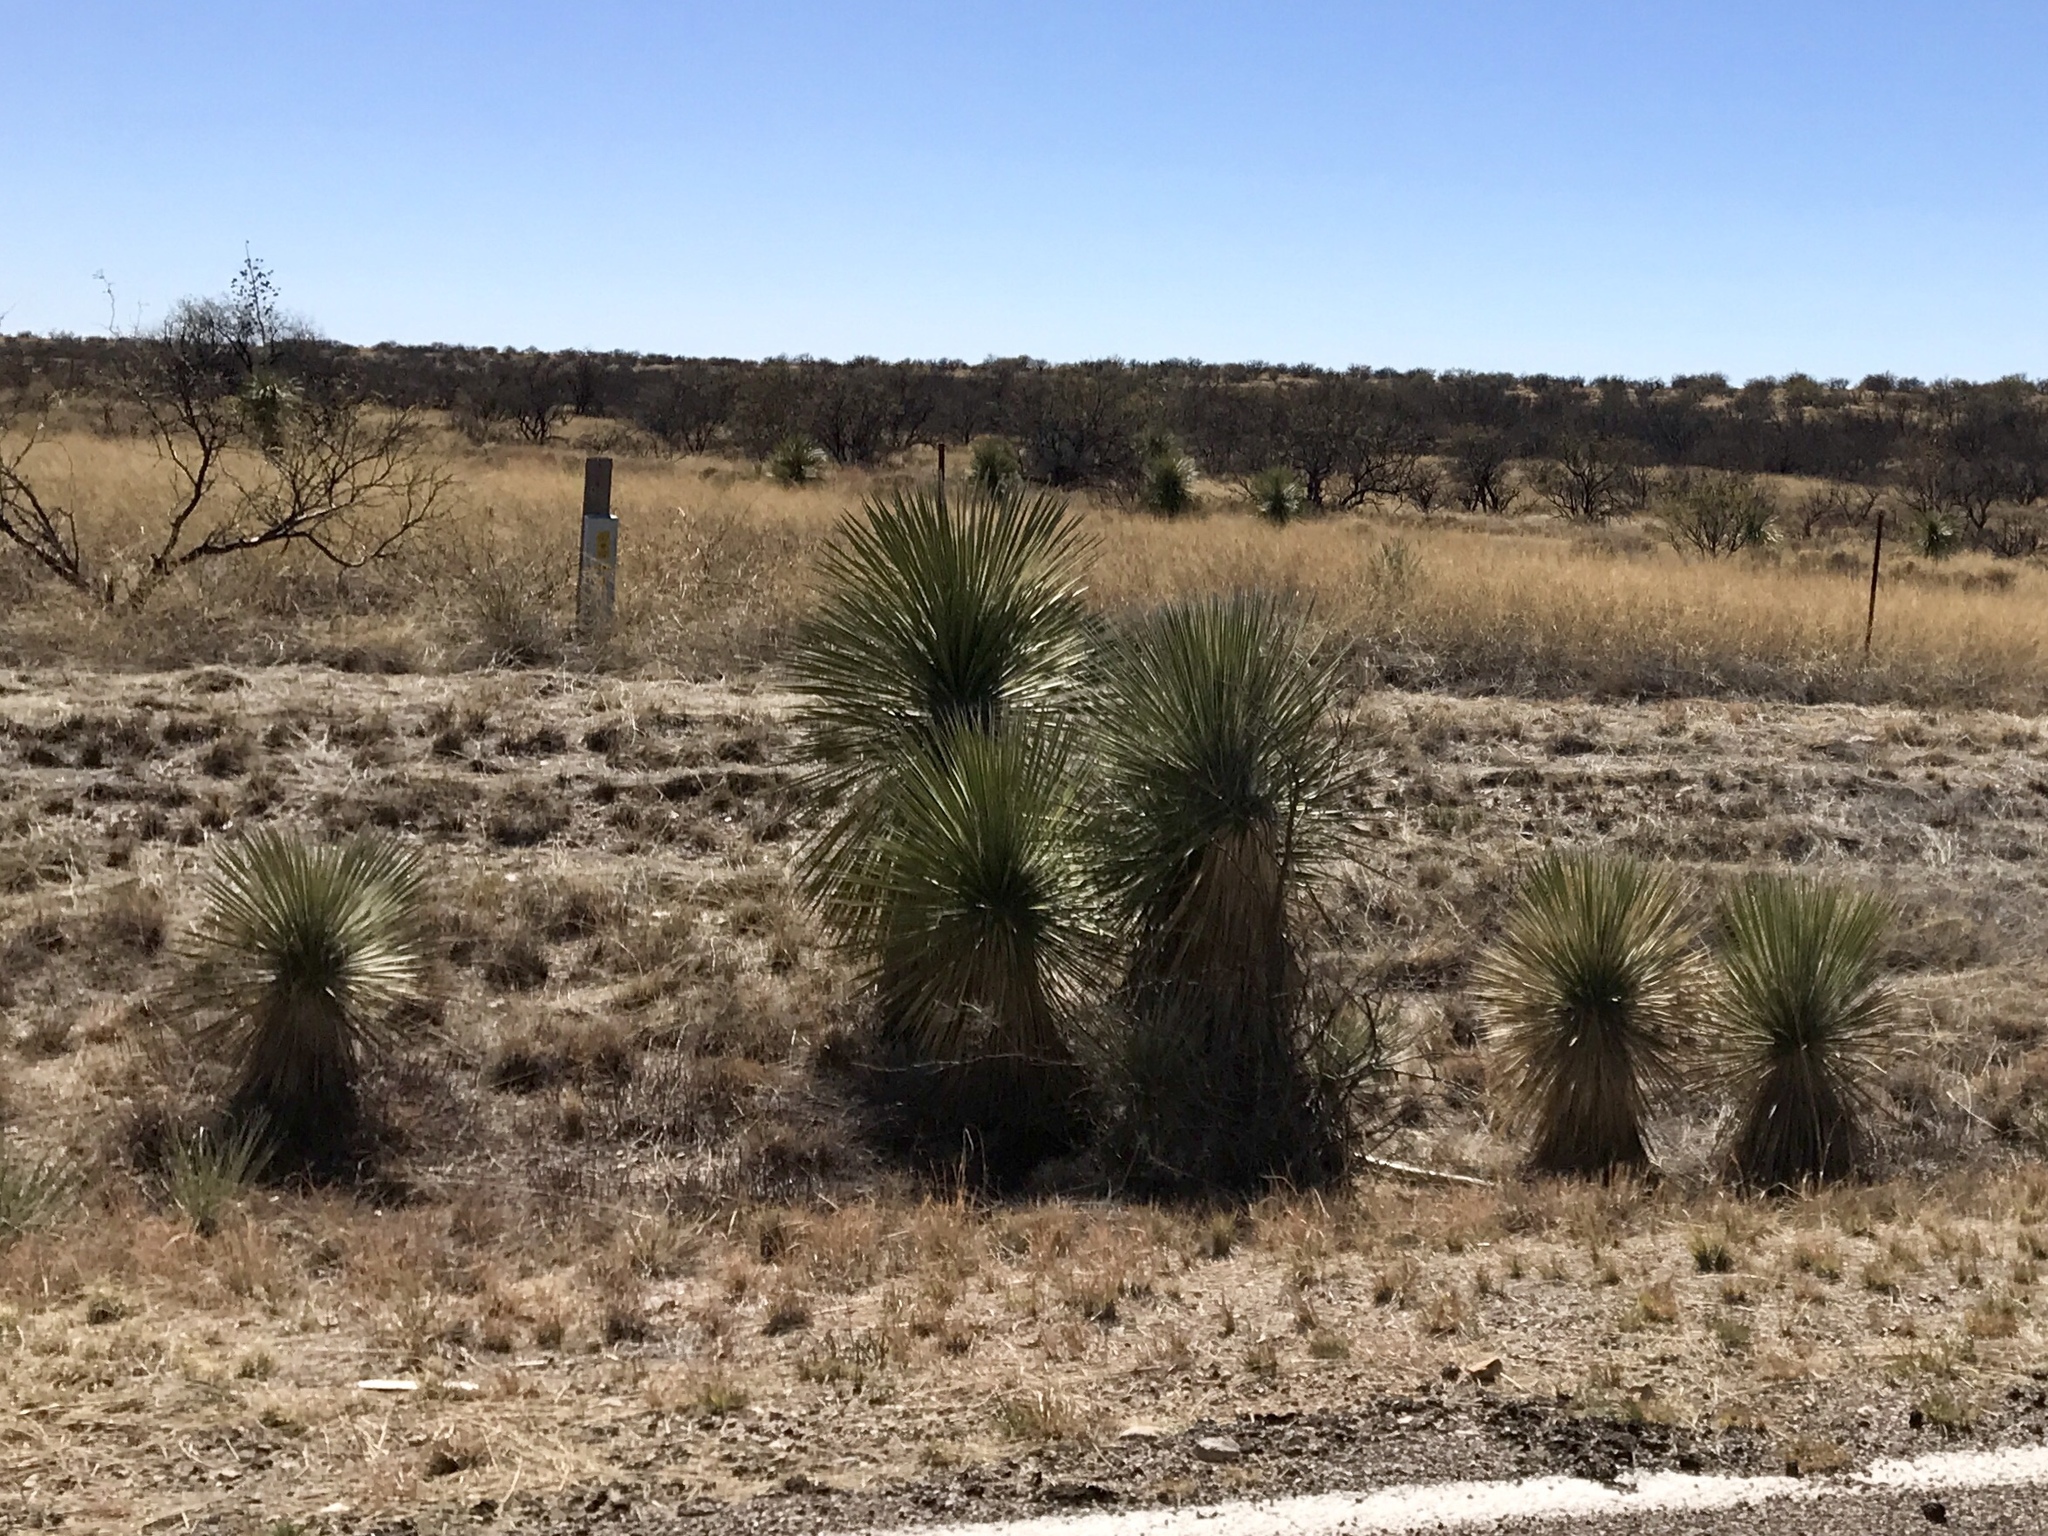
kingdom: Plantae
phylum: Tracheophyta
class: Liliopsida
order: Asparagales
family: Asparagaceae
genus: Yucca
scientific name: Yucca elata
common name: Palmella
